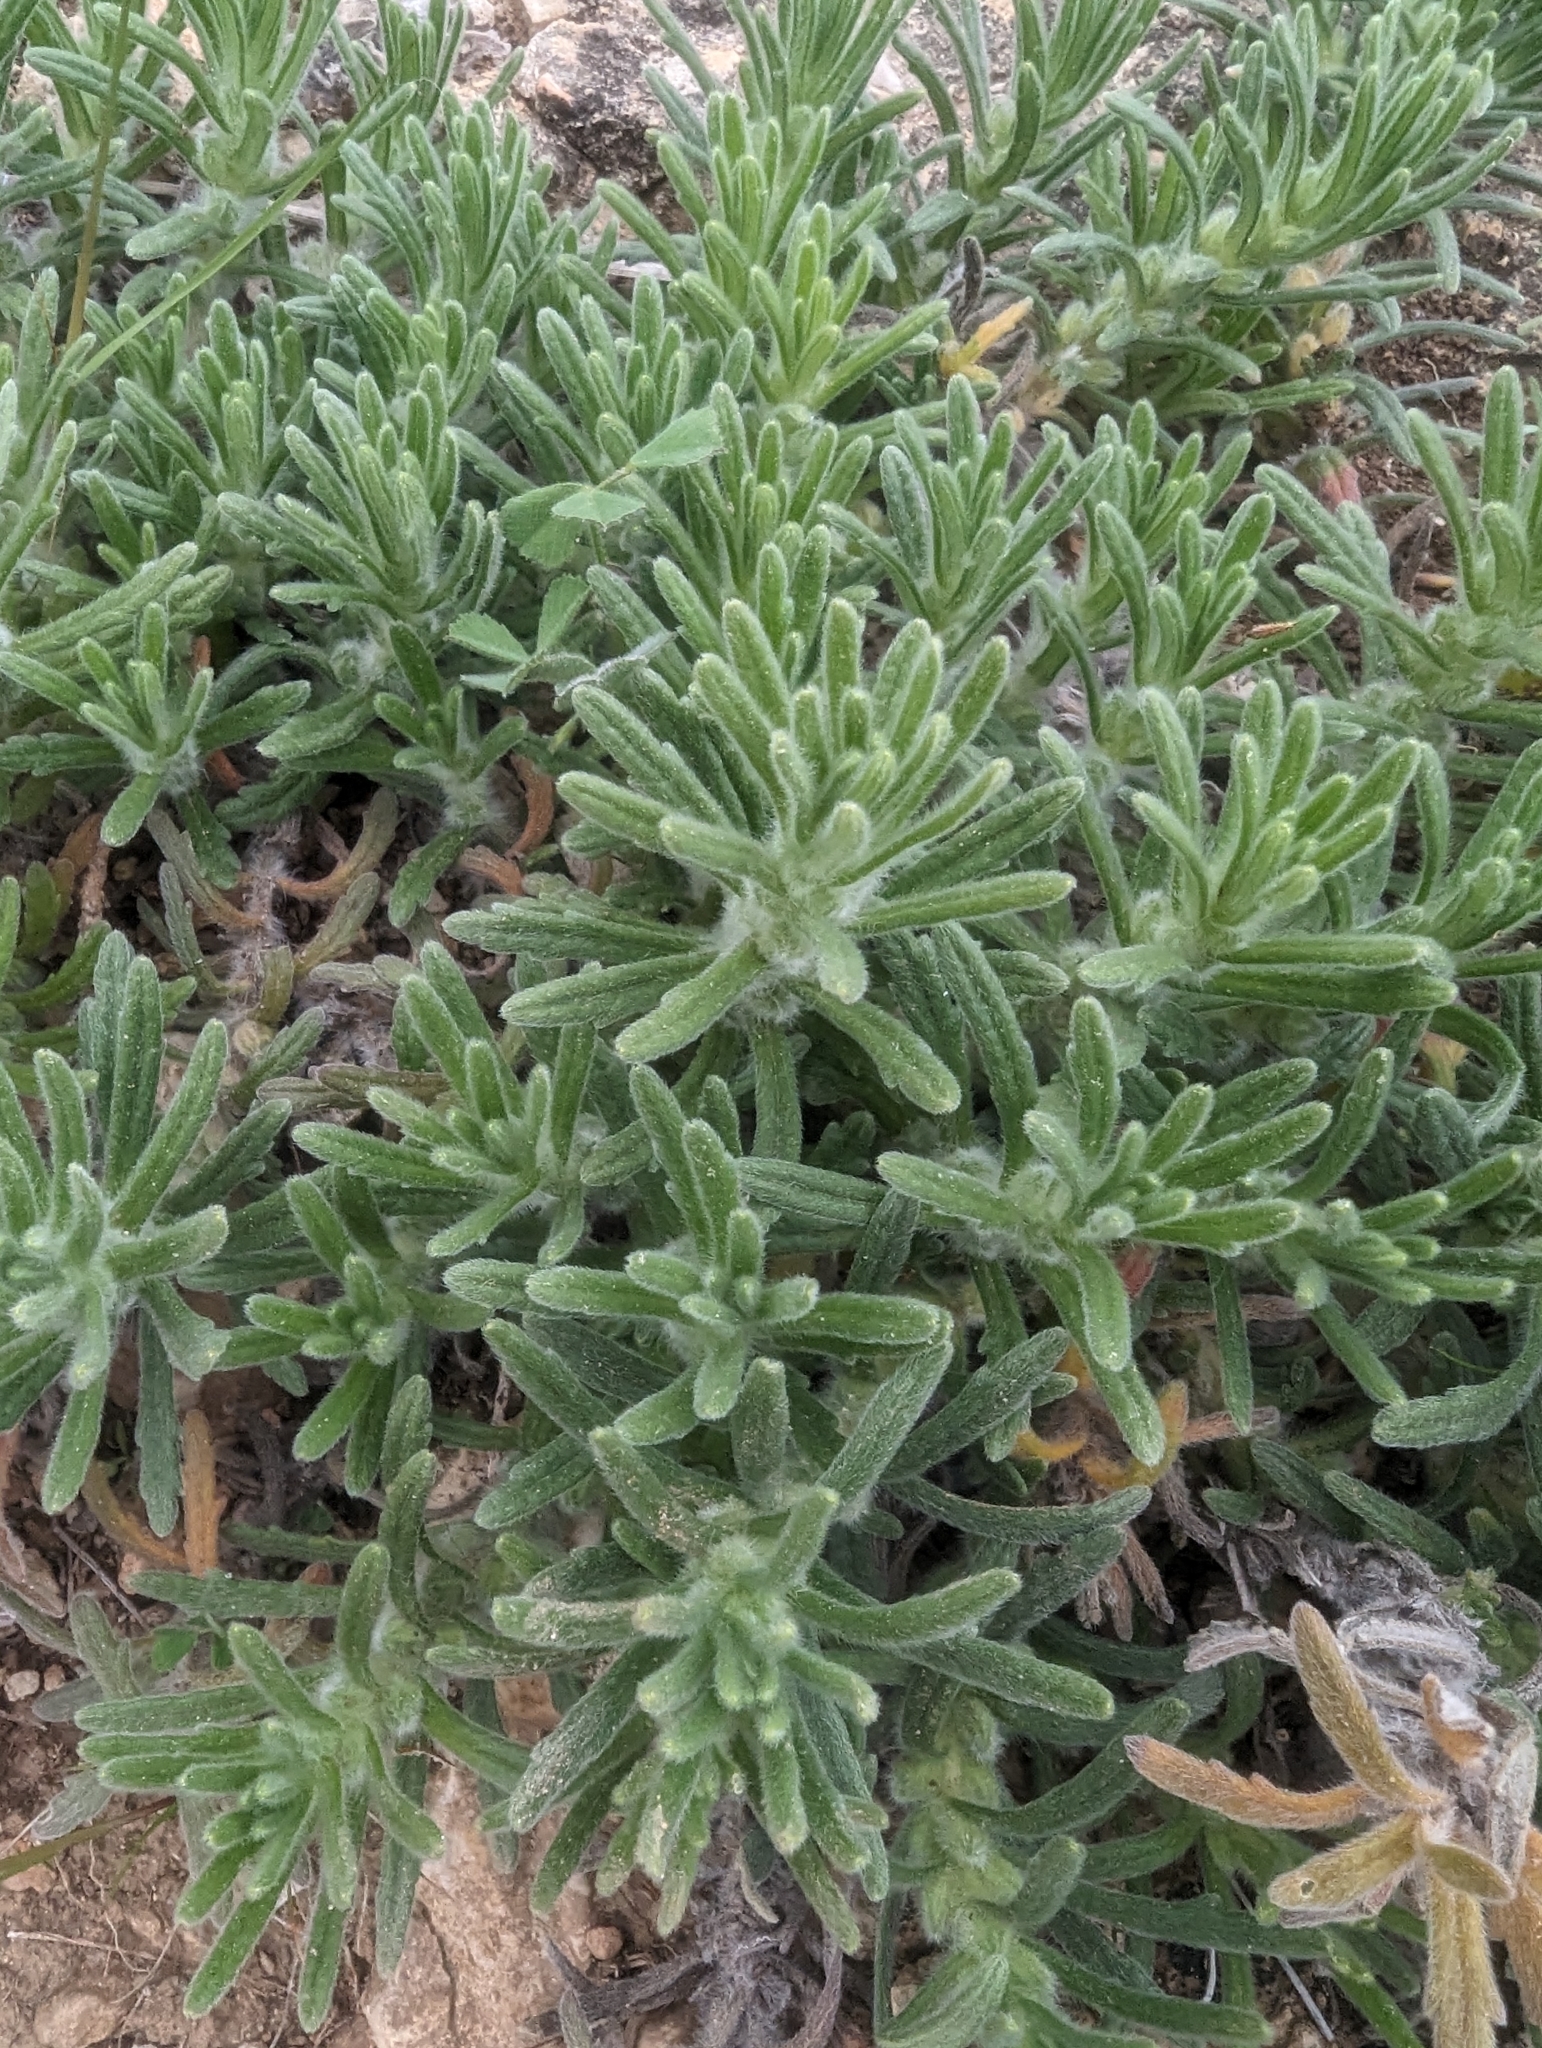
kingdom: Plantae
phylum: Tracheophyta
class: Magnoliopsida
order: Lamiales
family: Lamiaceae
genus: Ajuga
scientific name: Ajuga iva
